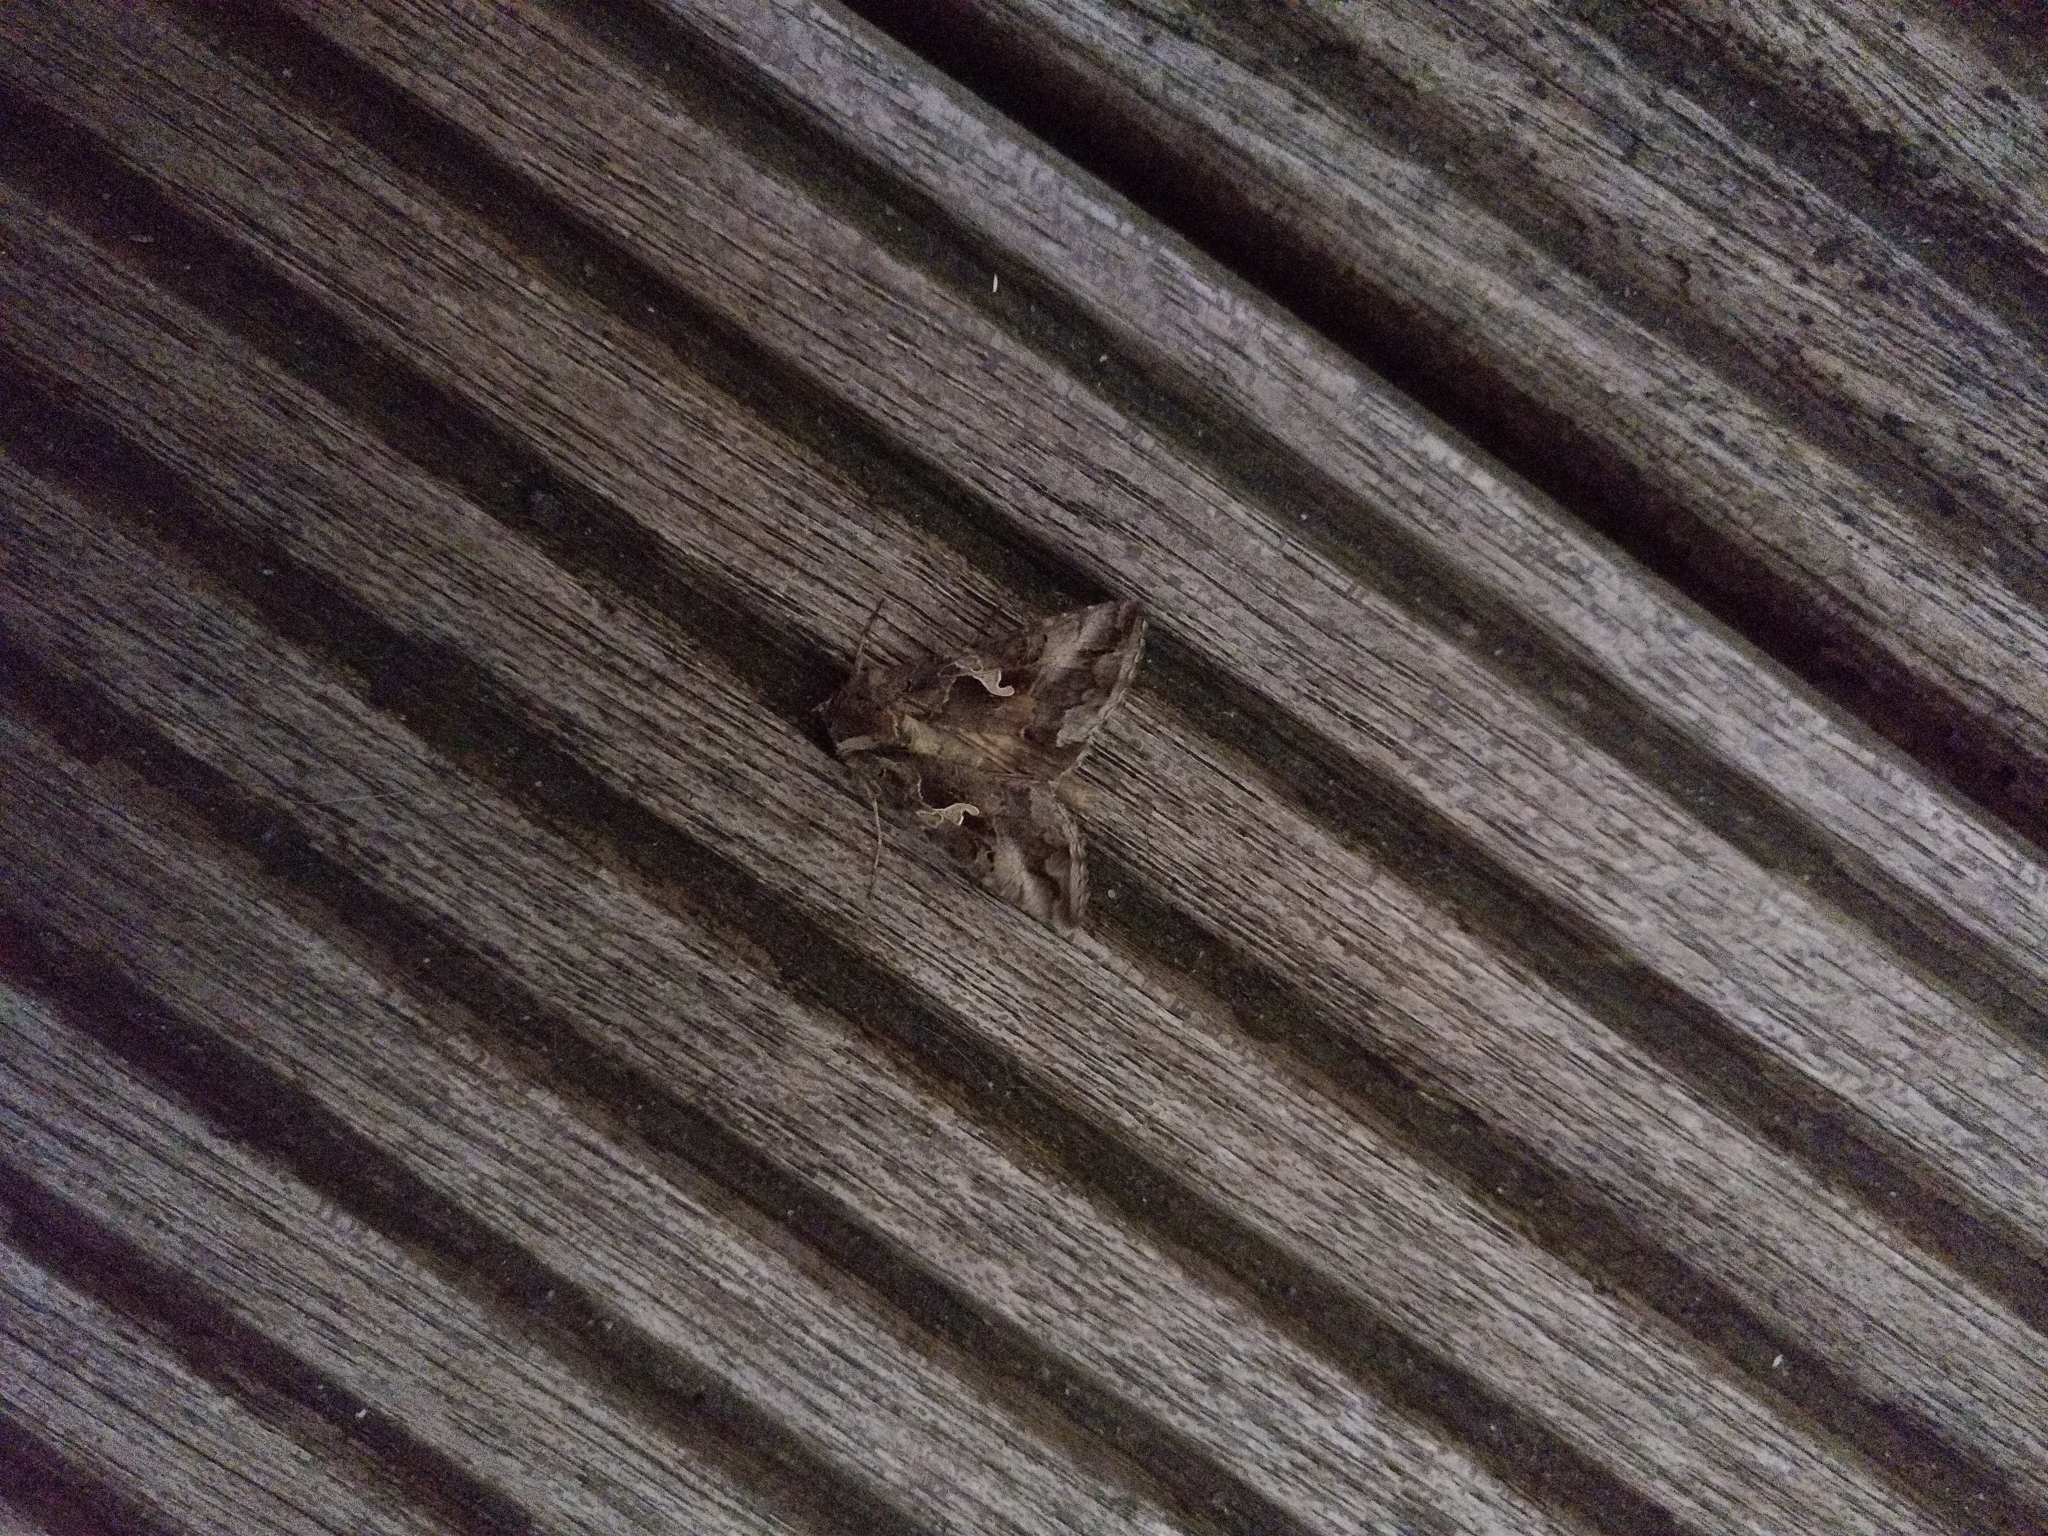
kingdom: Animalia
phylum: Arthropoda
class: Insecta
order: Lepidoptera
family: Noctuidae
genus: Autographa
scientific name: Autographa gamma
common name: Silver y
